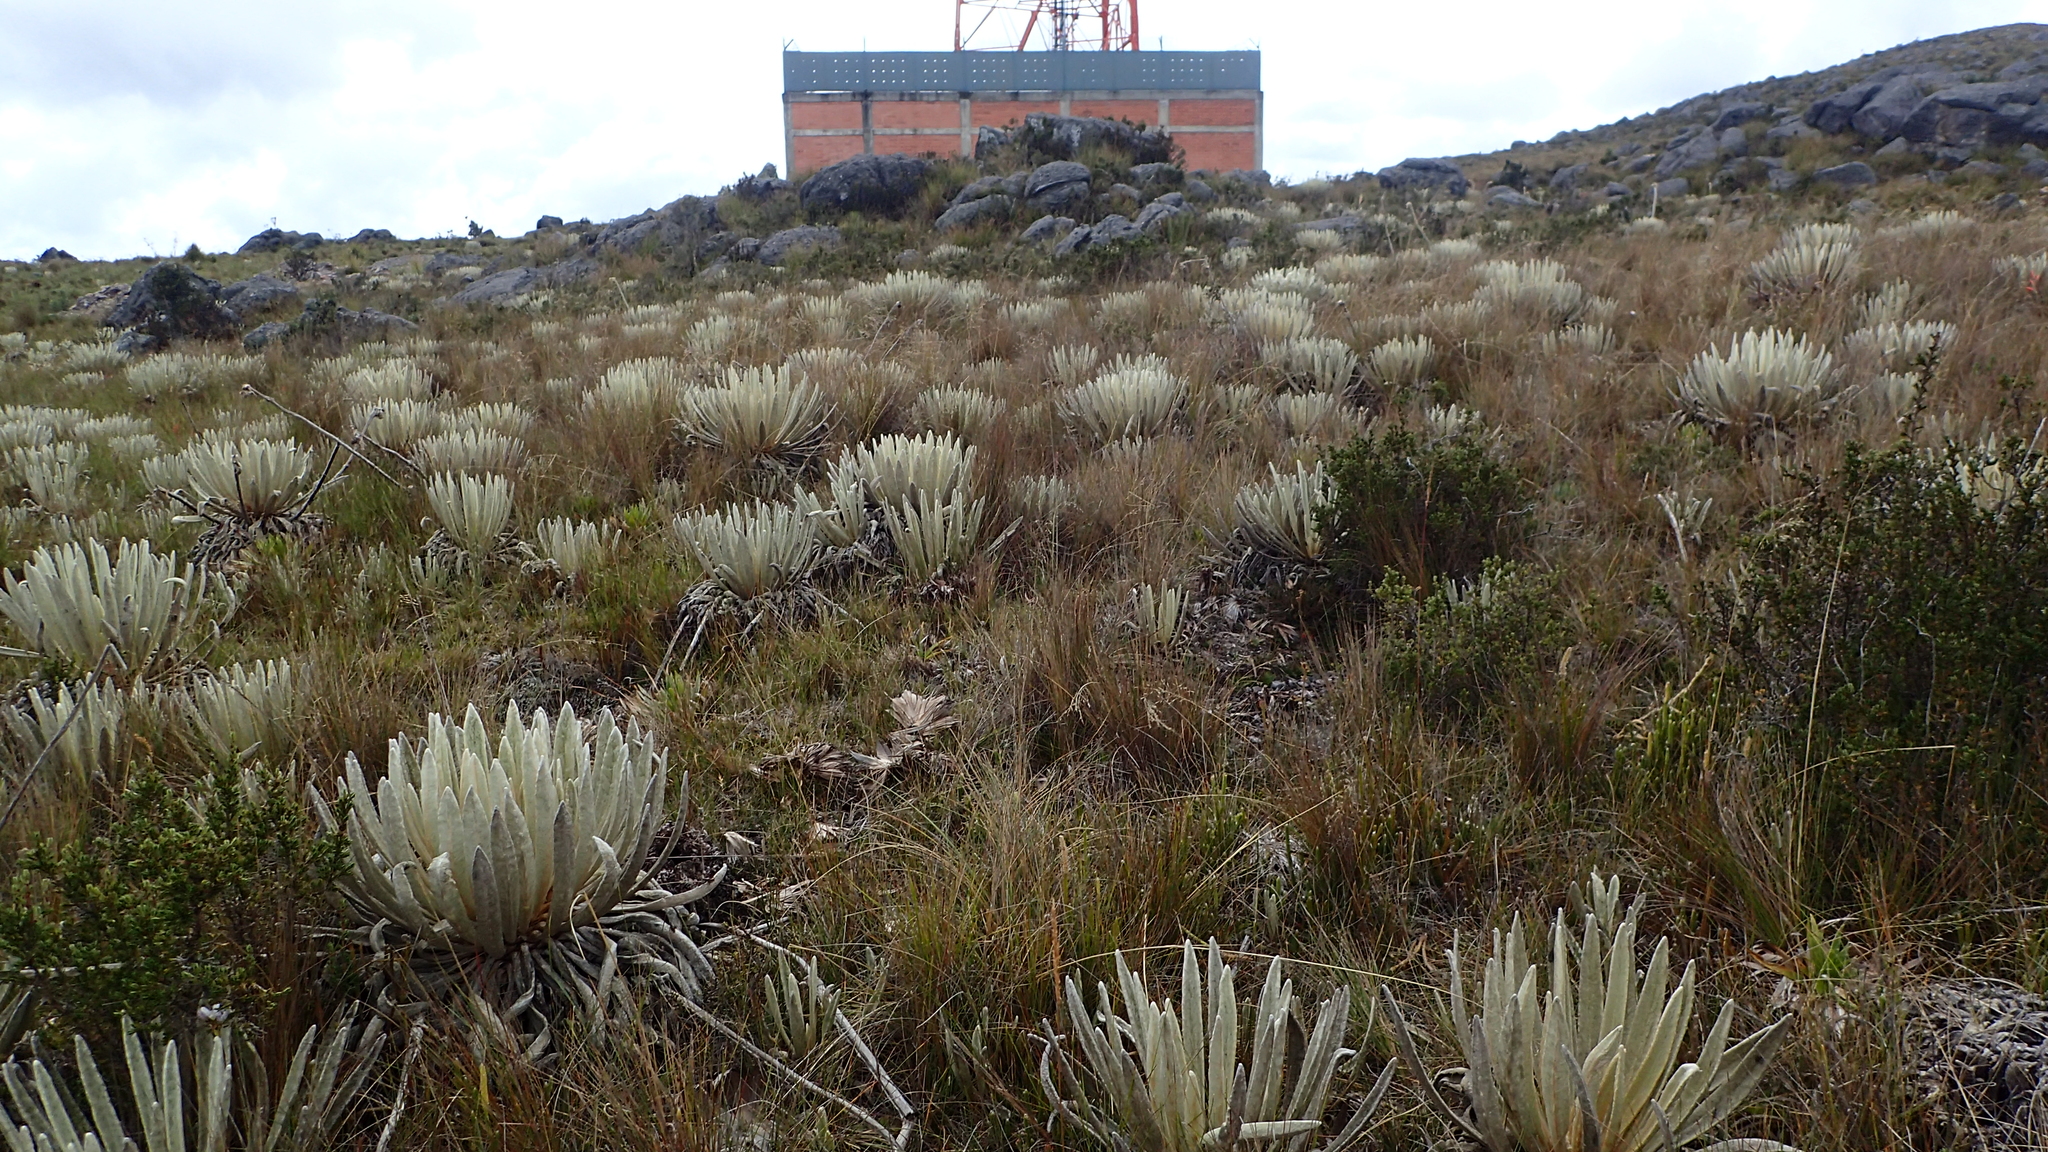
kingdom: Plantae
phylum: Tracheophyta
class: Magnoliopsida
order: Asterales
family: Asteraceae
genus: Espeletia
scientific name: Espeletia congestiflora
